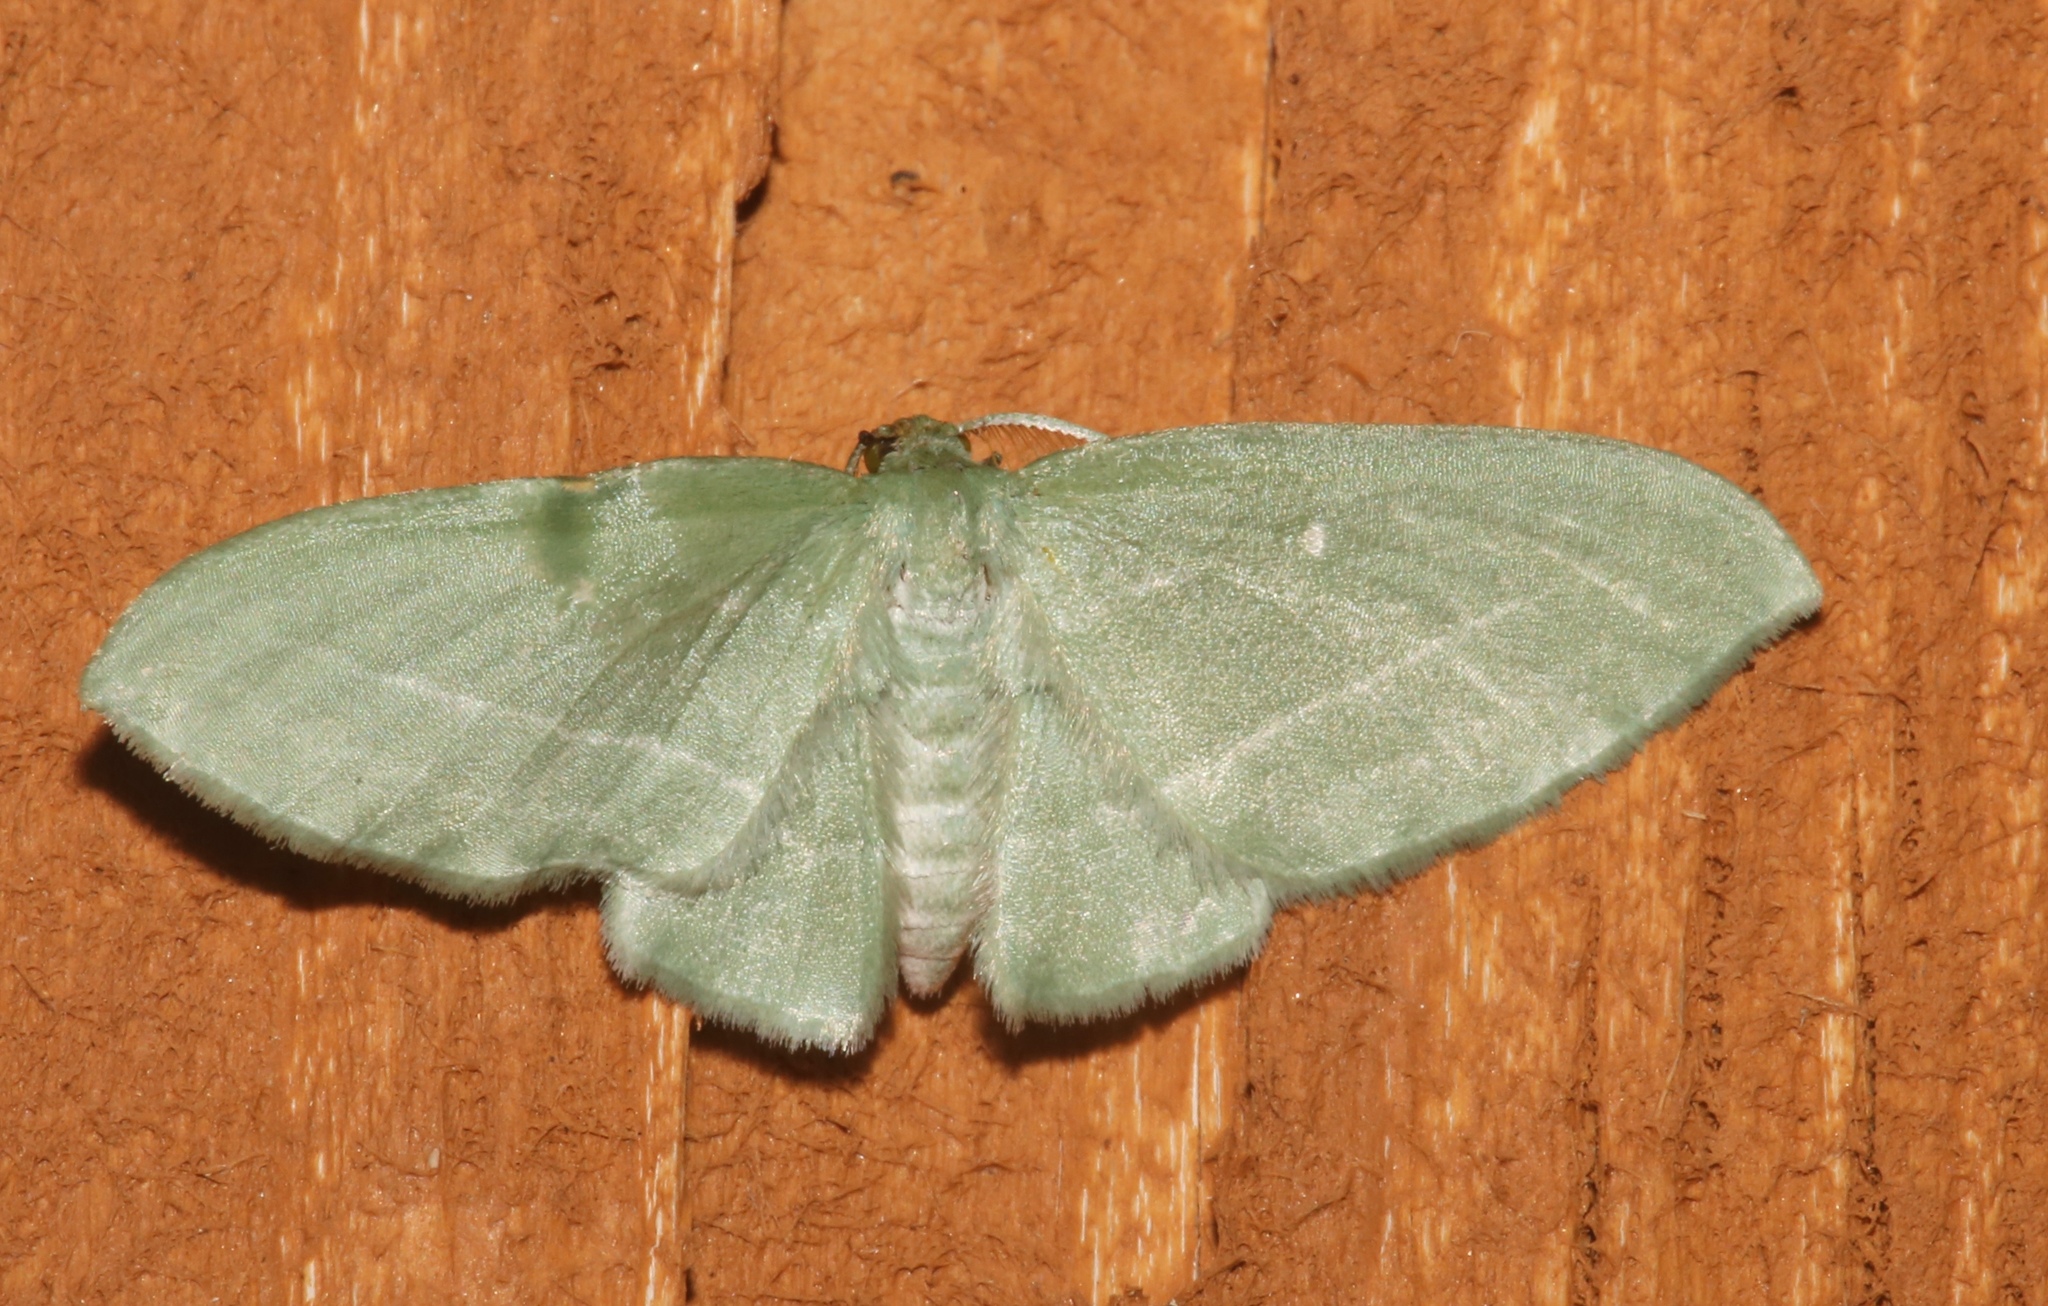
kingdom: Animalia
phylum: Arthropoda
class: Insecta
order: Lepidoptera
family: Geometridae
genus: Dyspteris
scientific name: Dyspteris abortivaria
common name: Bad-wing
